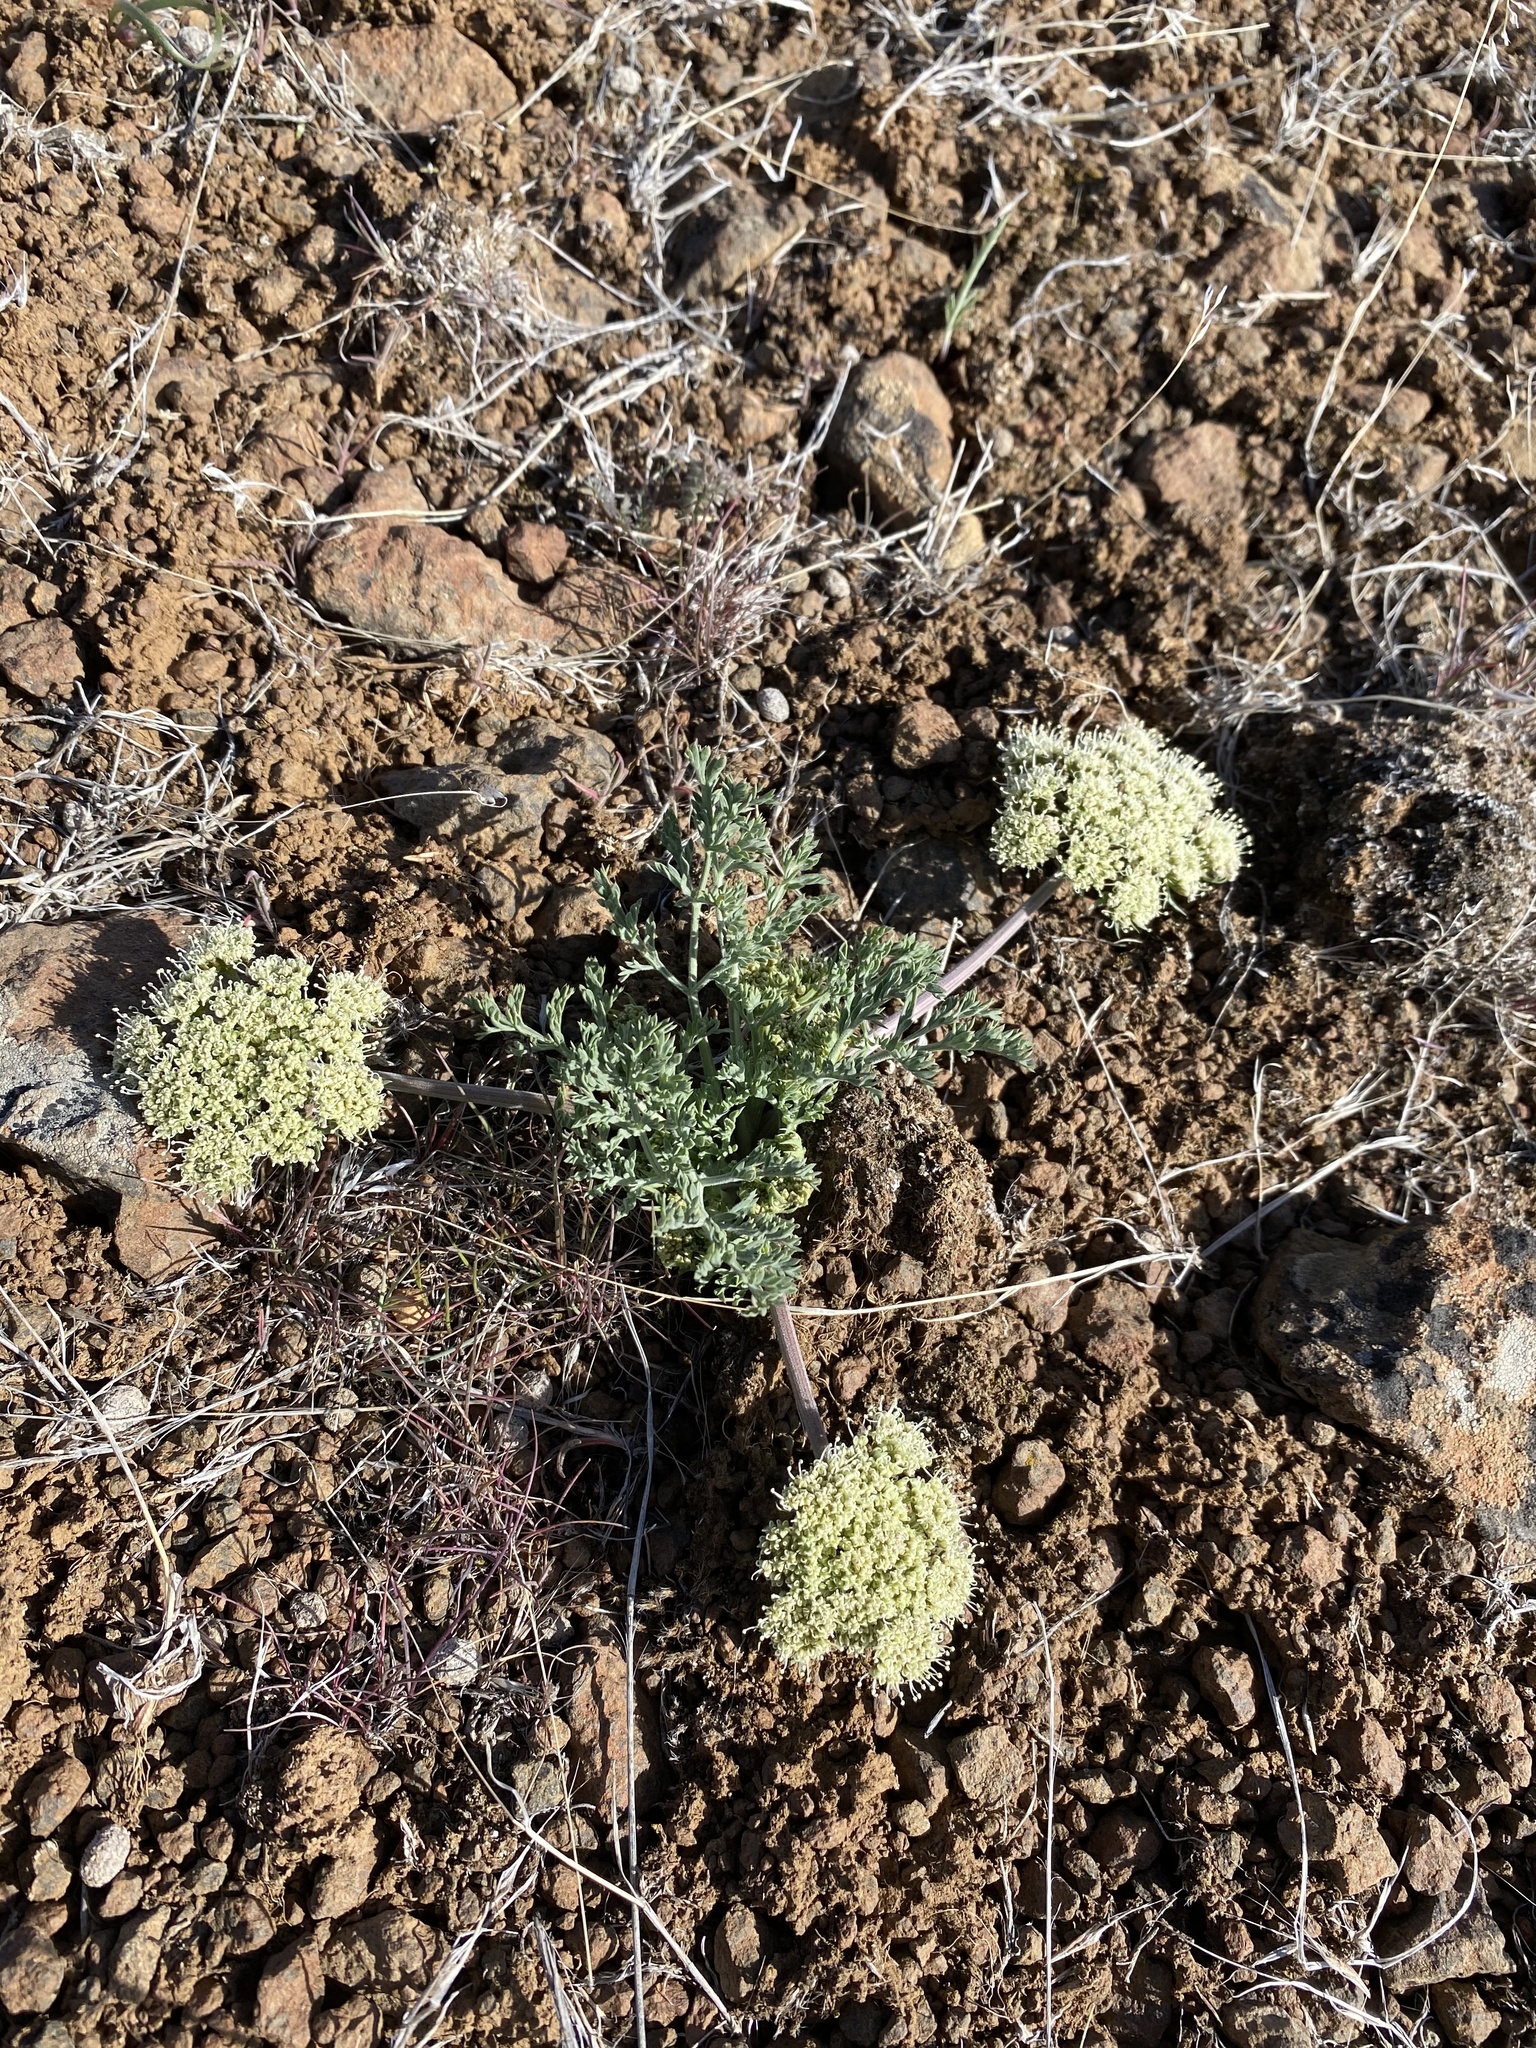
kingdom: Plantae
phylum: Tracheophyta
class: Magnoliopsida
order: Apiales
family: Apiaceae
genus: Lomatium
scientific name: Lomatium macrocarpum
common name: Big-seed biscuitroot
